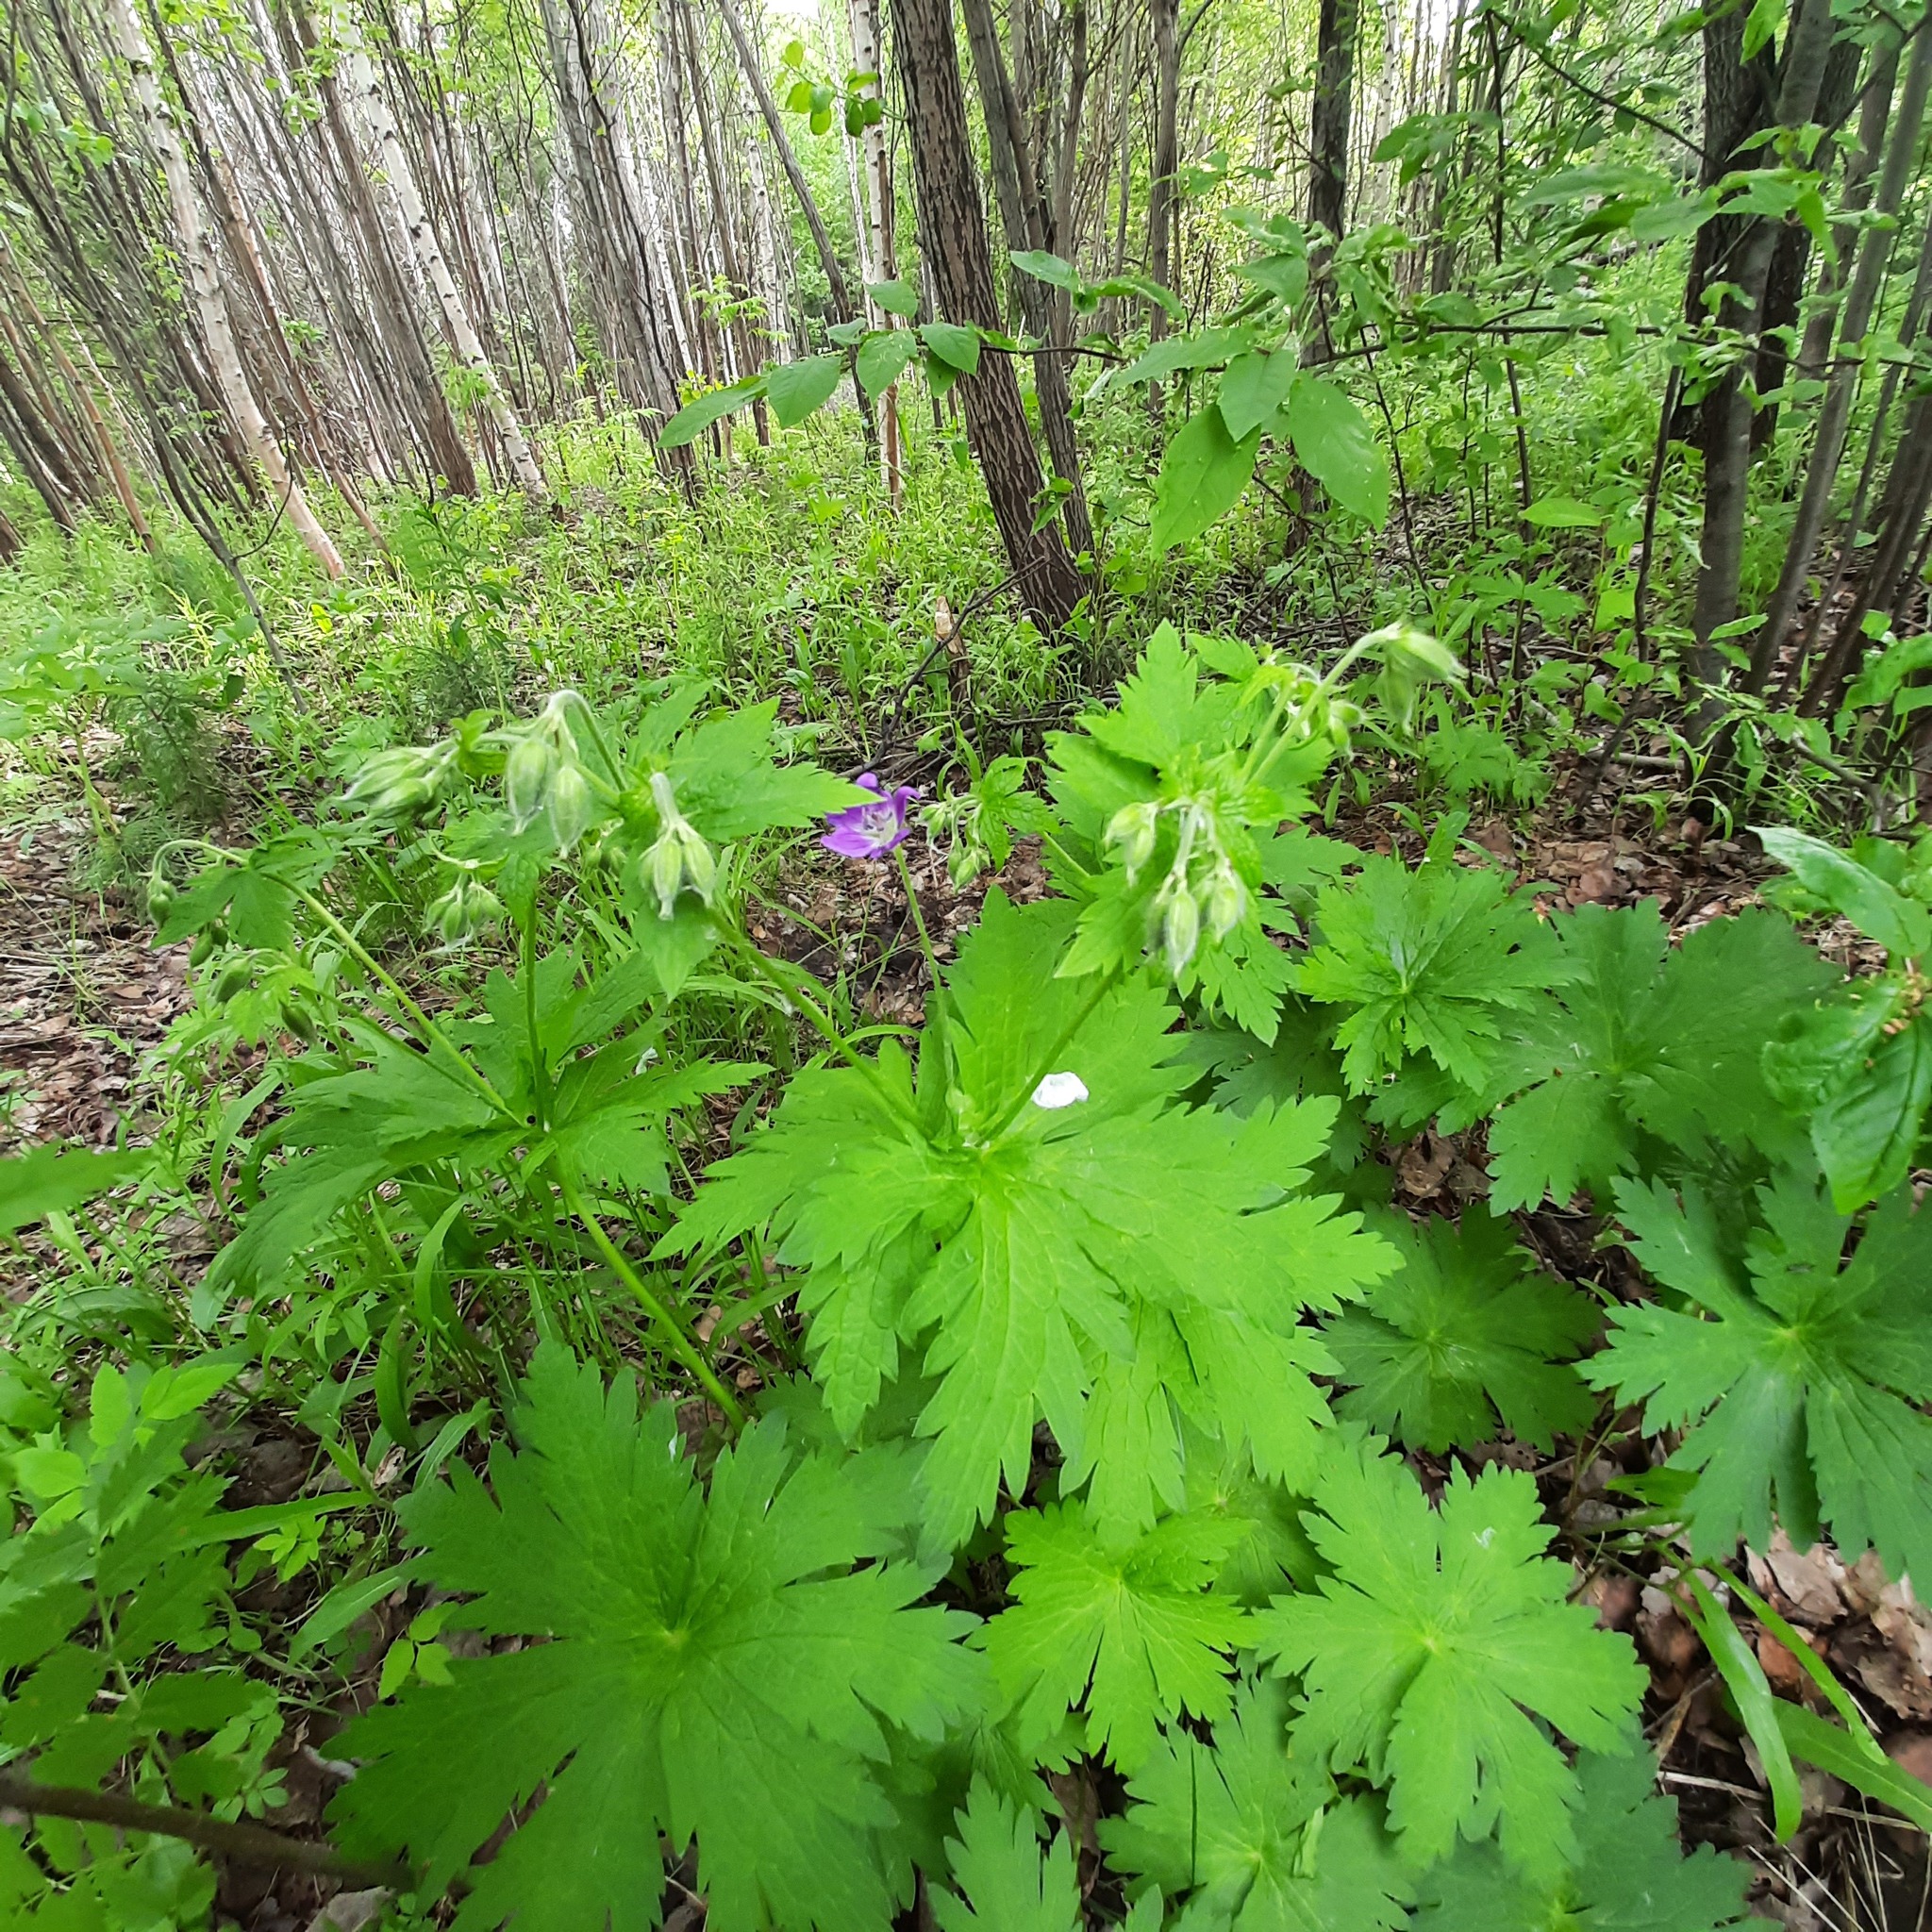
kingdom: Plantae
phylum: Tracheophyta
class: Magnoliopsida
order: Geraniales
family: Geraniaceae
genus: Geranium
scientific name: Geranium sylvaticum
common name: Wood crane's-bill
